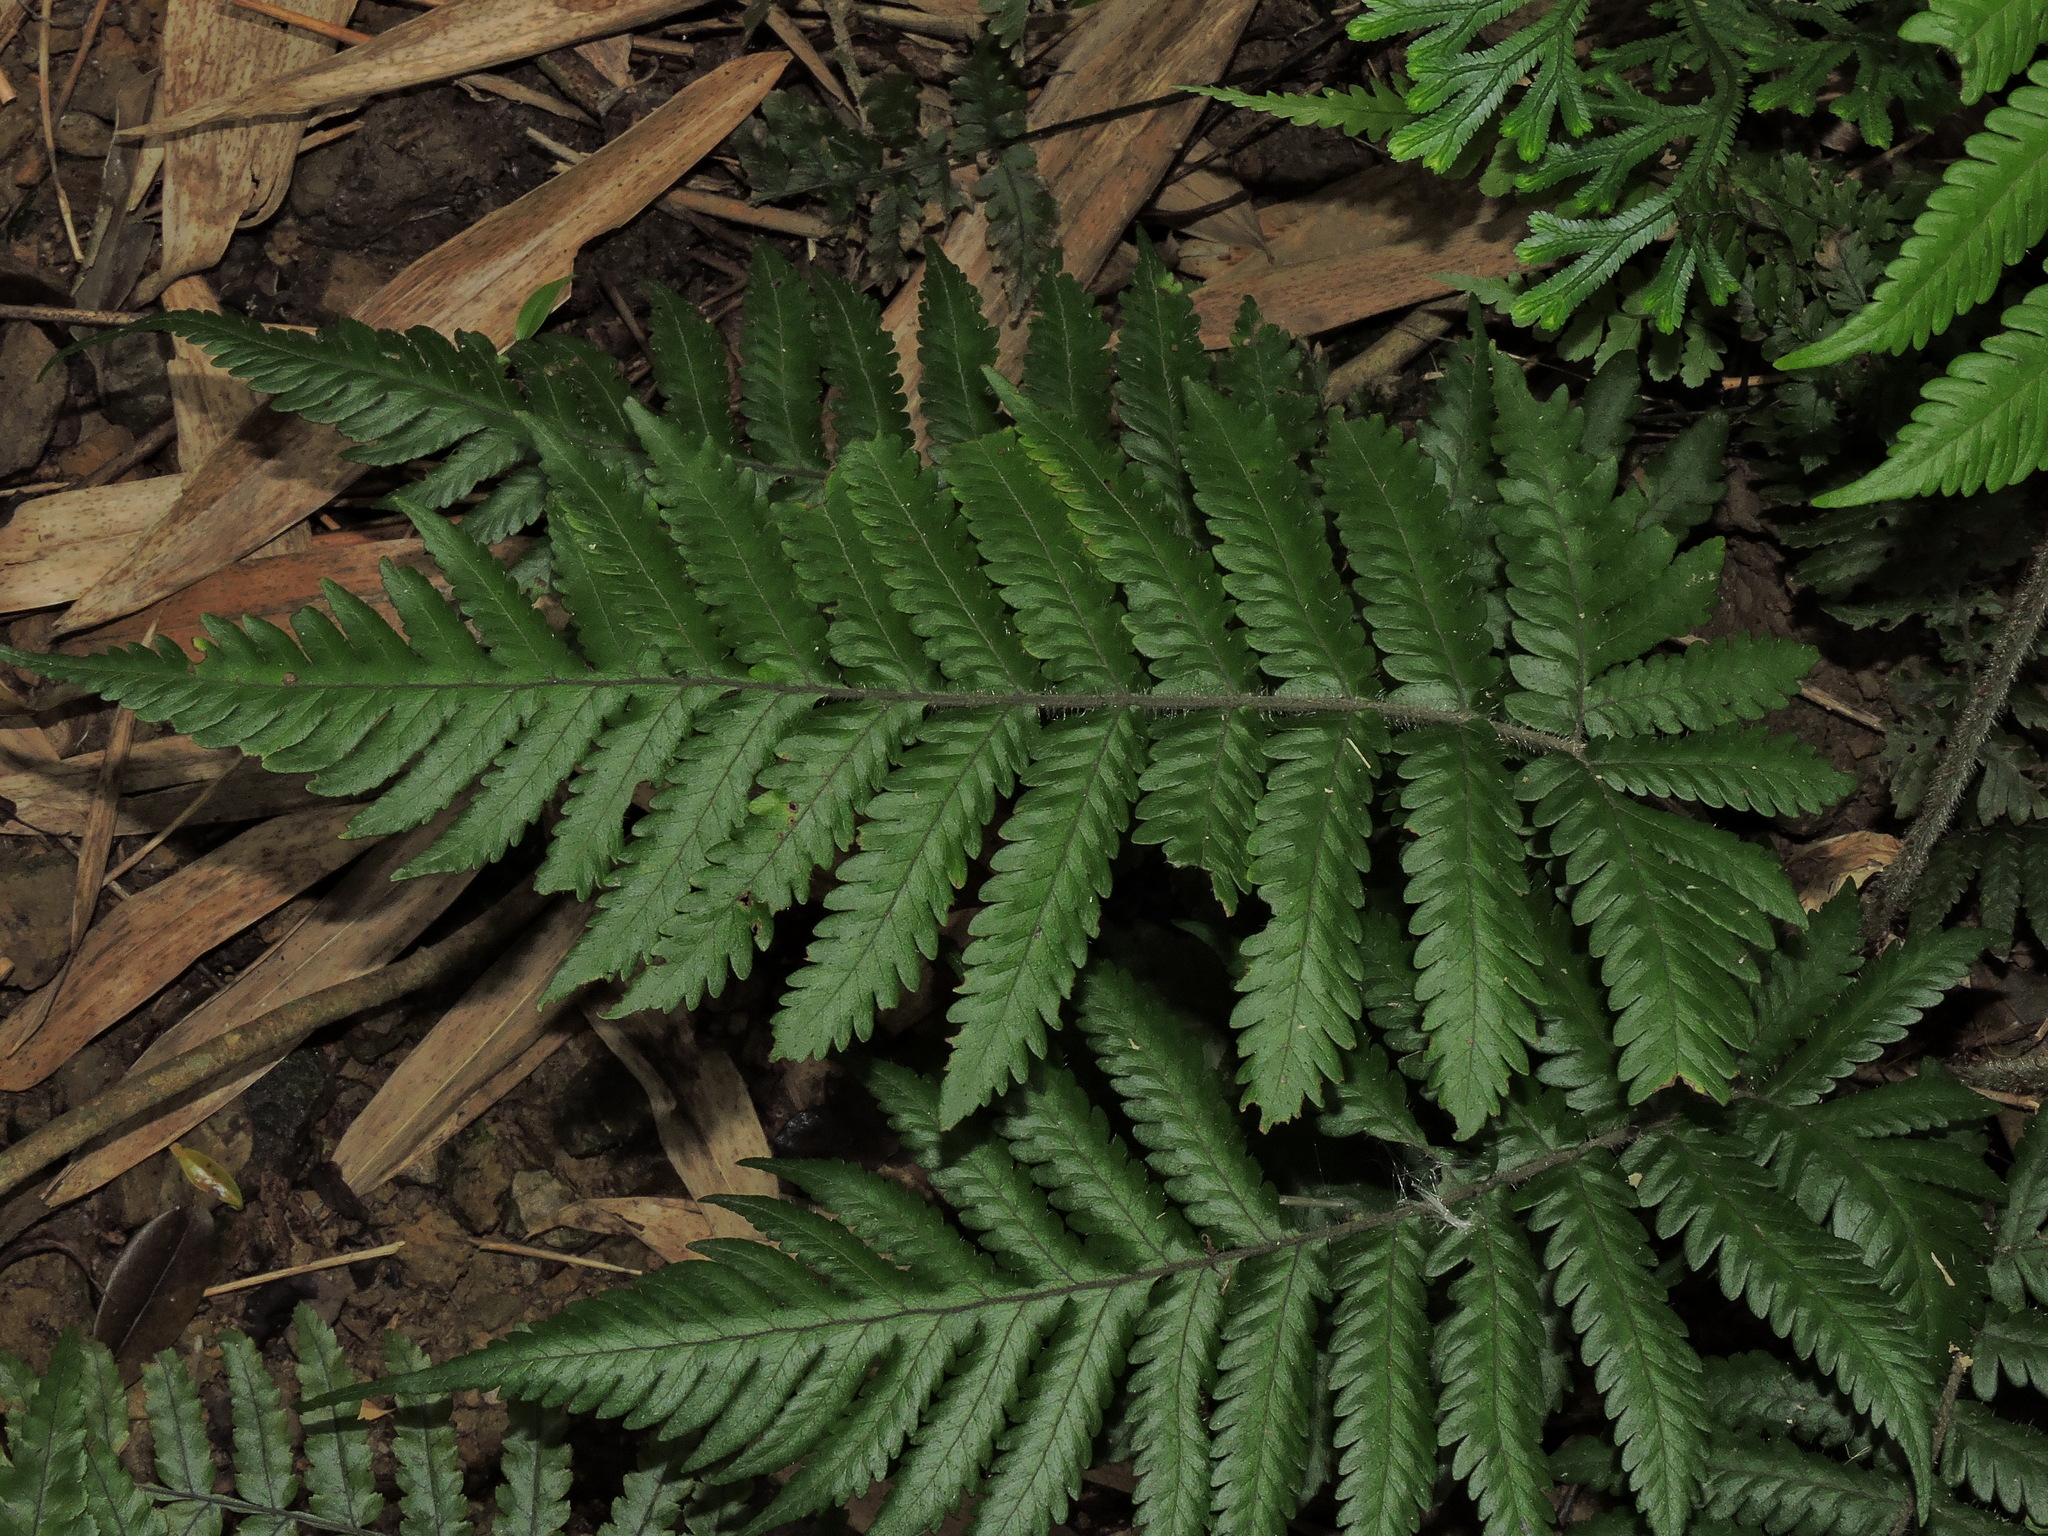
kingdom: Plantae
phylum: Tracheophyta
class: Polypodiopsida
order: Polypodiales
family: Tectariaceae
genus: Tectaria
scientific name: Tectaria kusukusensis
